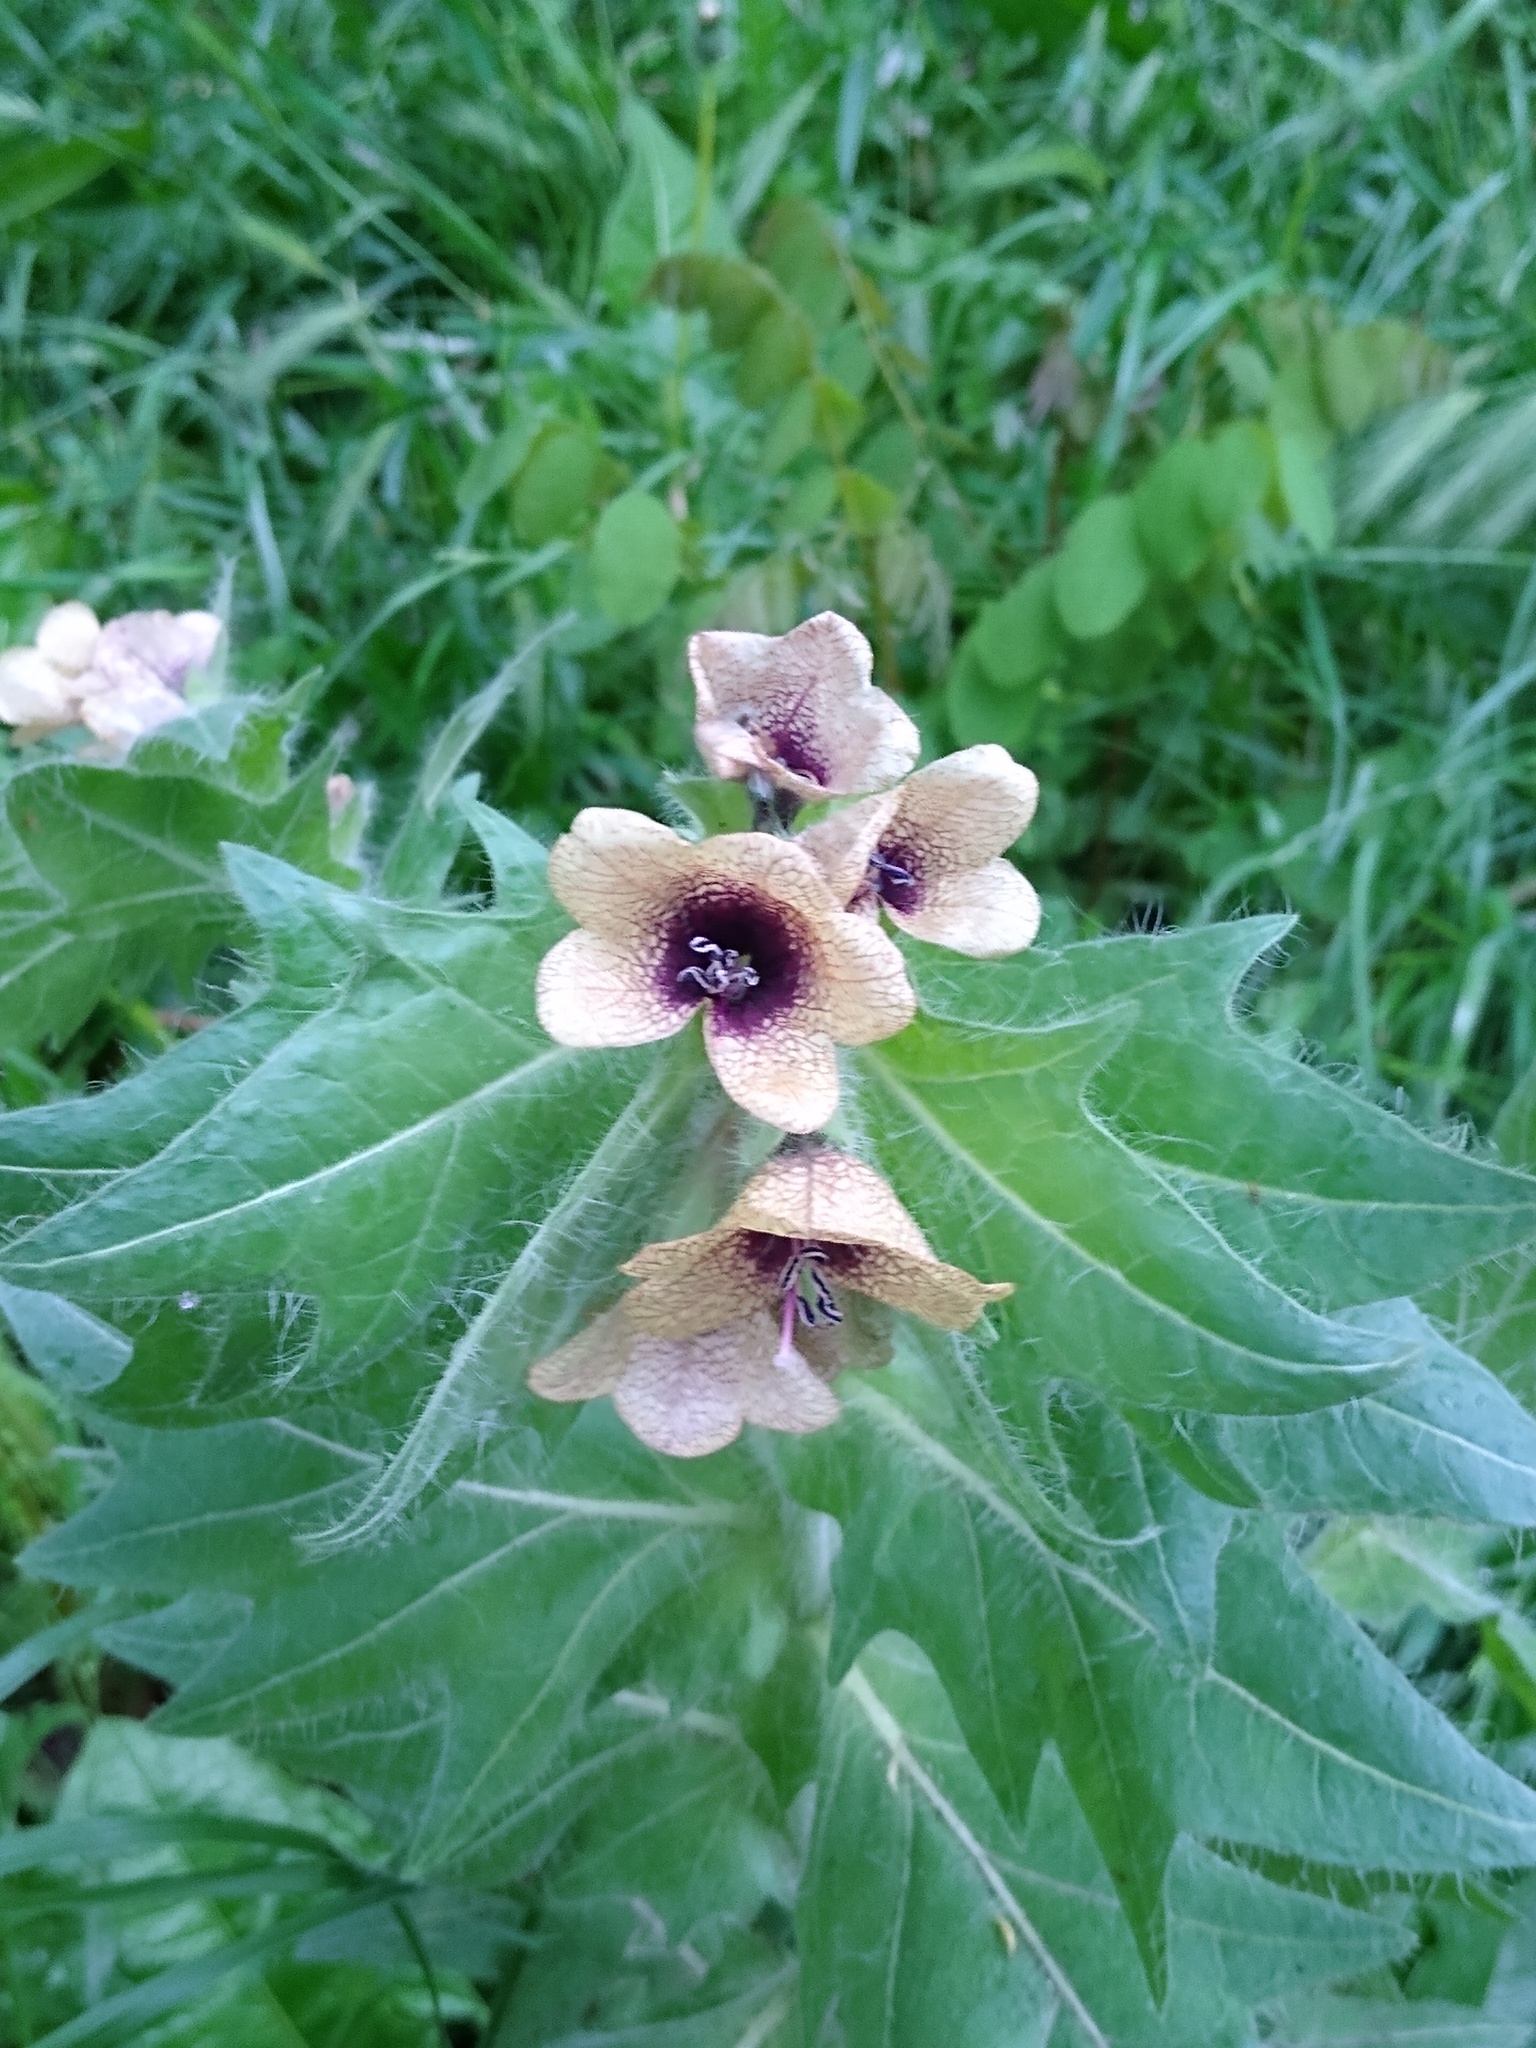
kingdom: Plantae
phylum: Tracheophyta
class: Magnoliopsida
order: Solanales
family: Solanaceae
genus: Hyoscyamus
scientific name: Hyoscyamus niger
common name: Henbane
